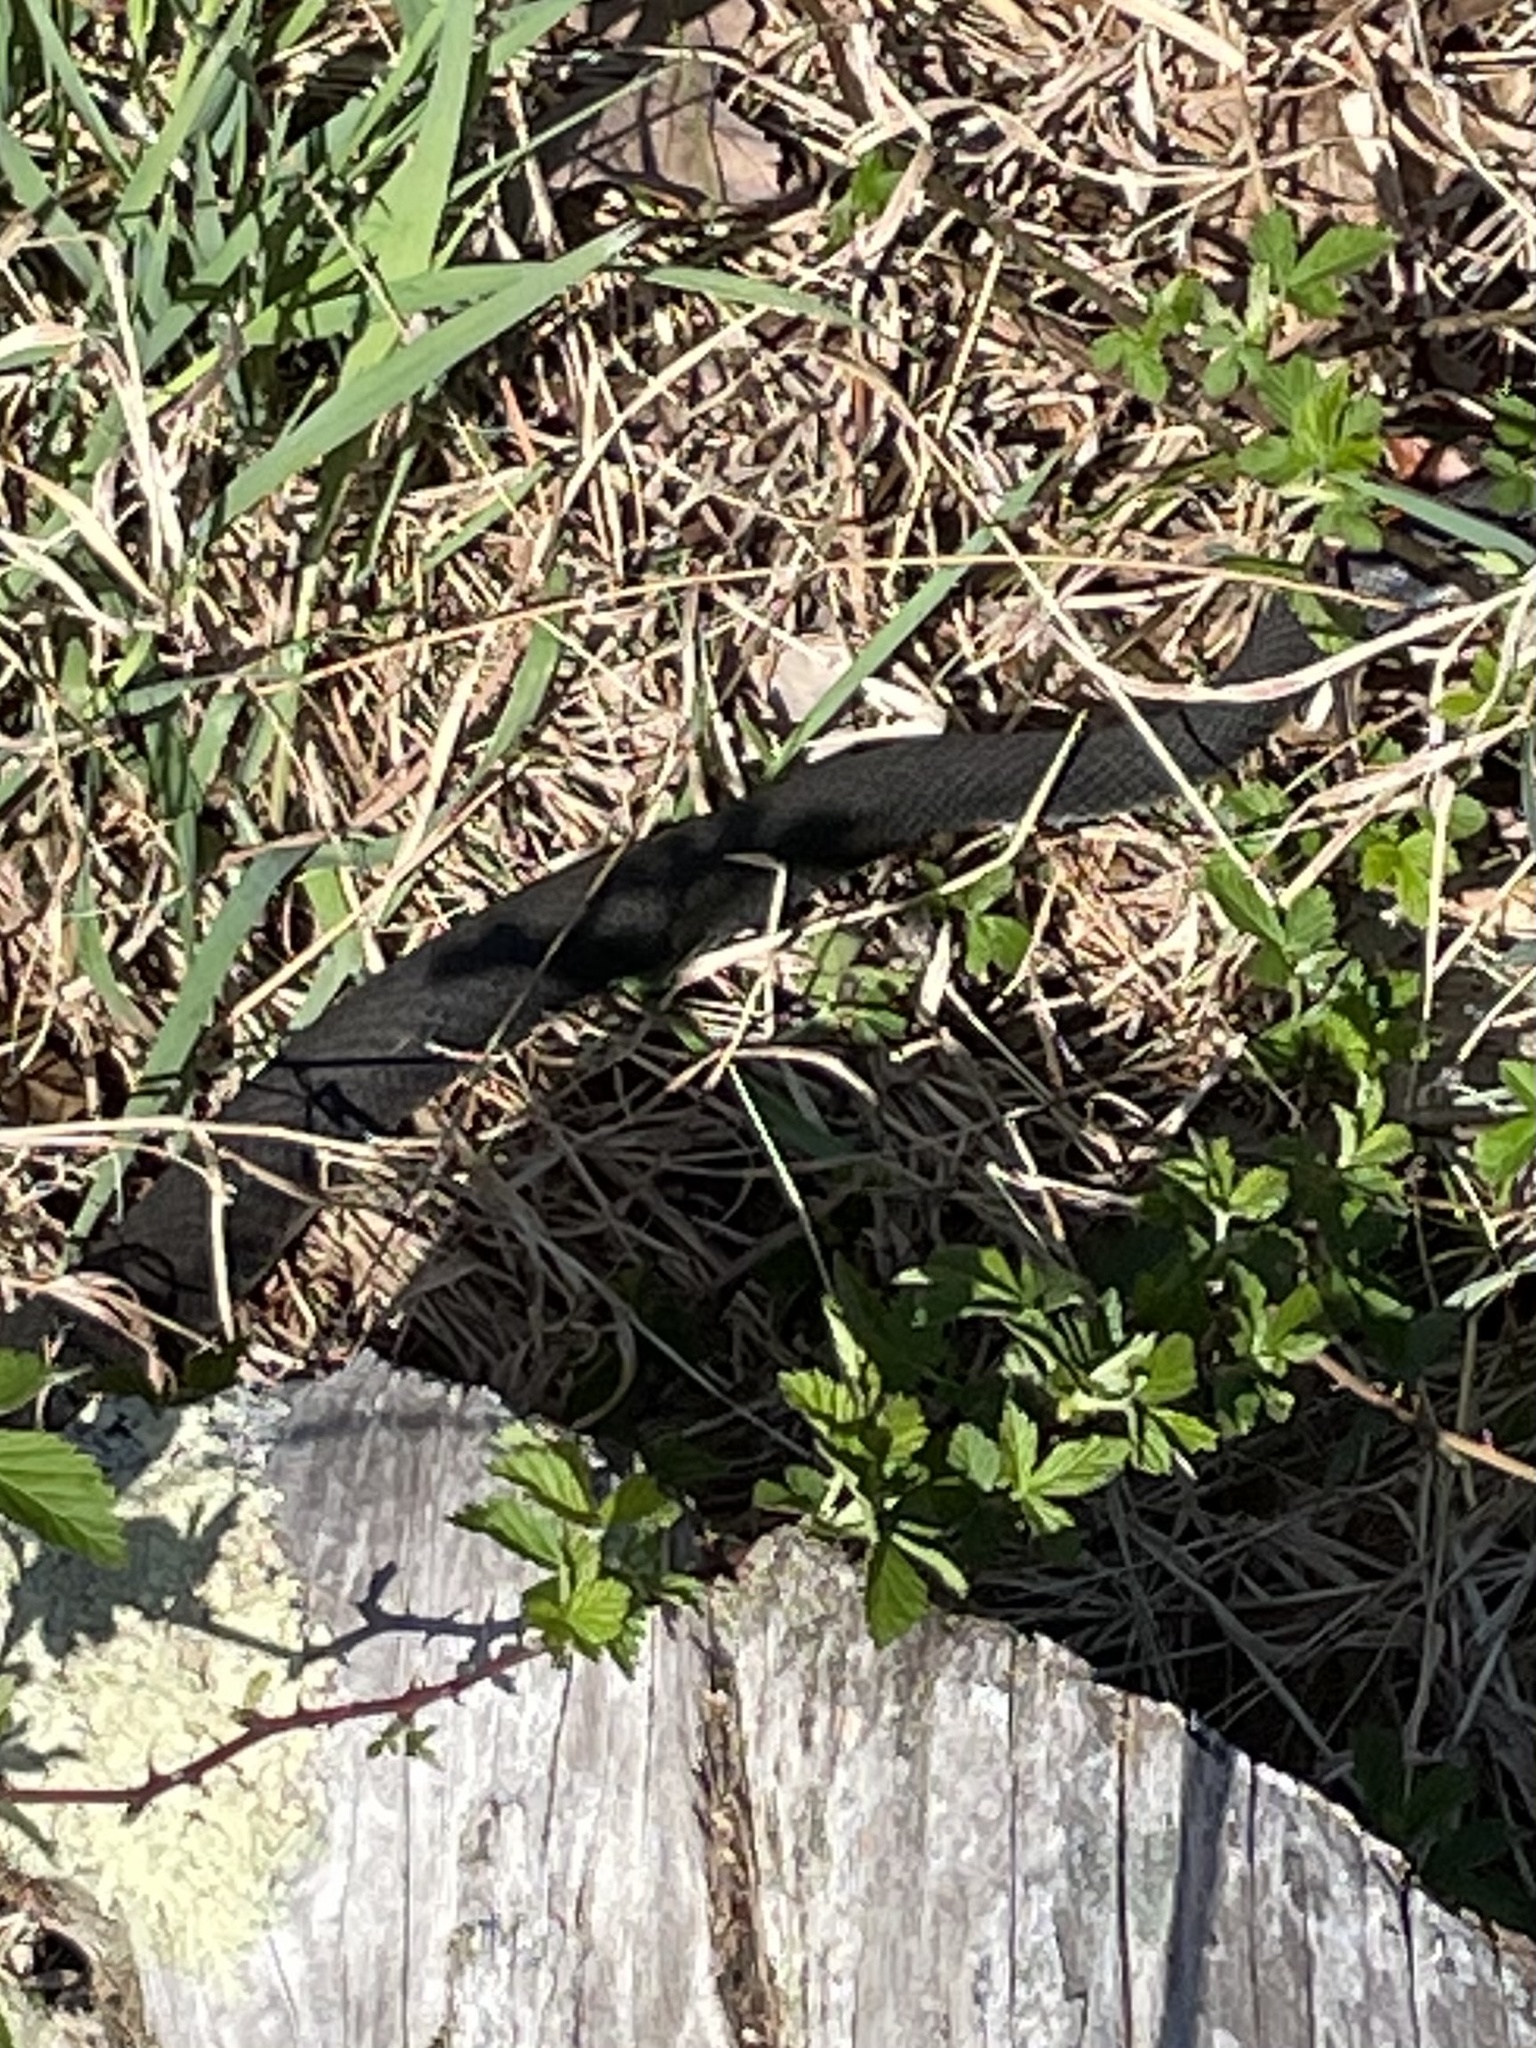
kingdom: Animalia
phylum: Chordata
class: Squamata
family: Colubridae
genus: Coluber
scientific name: Coluber constrictor
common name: Eastern racer
